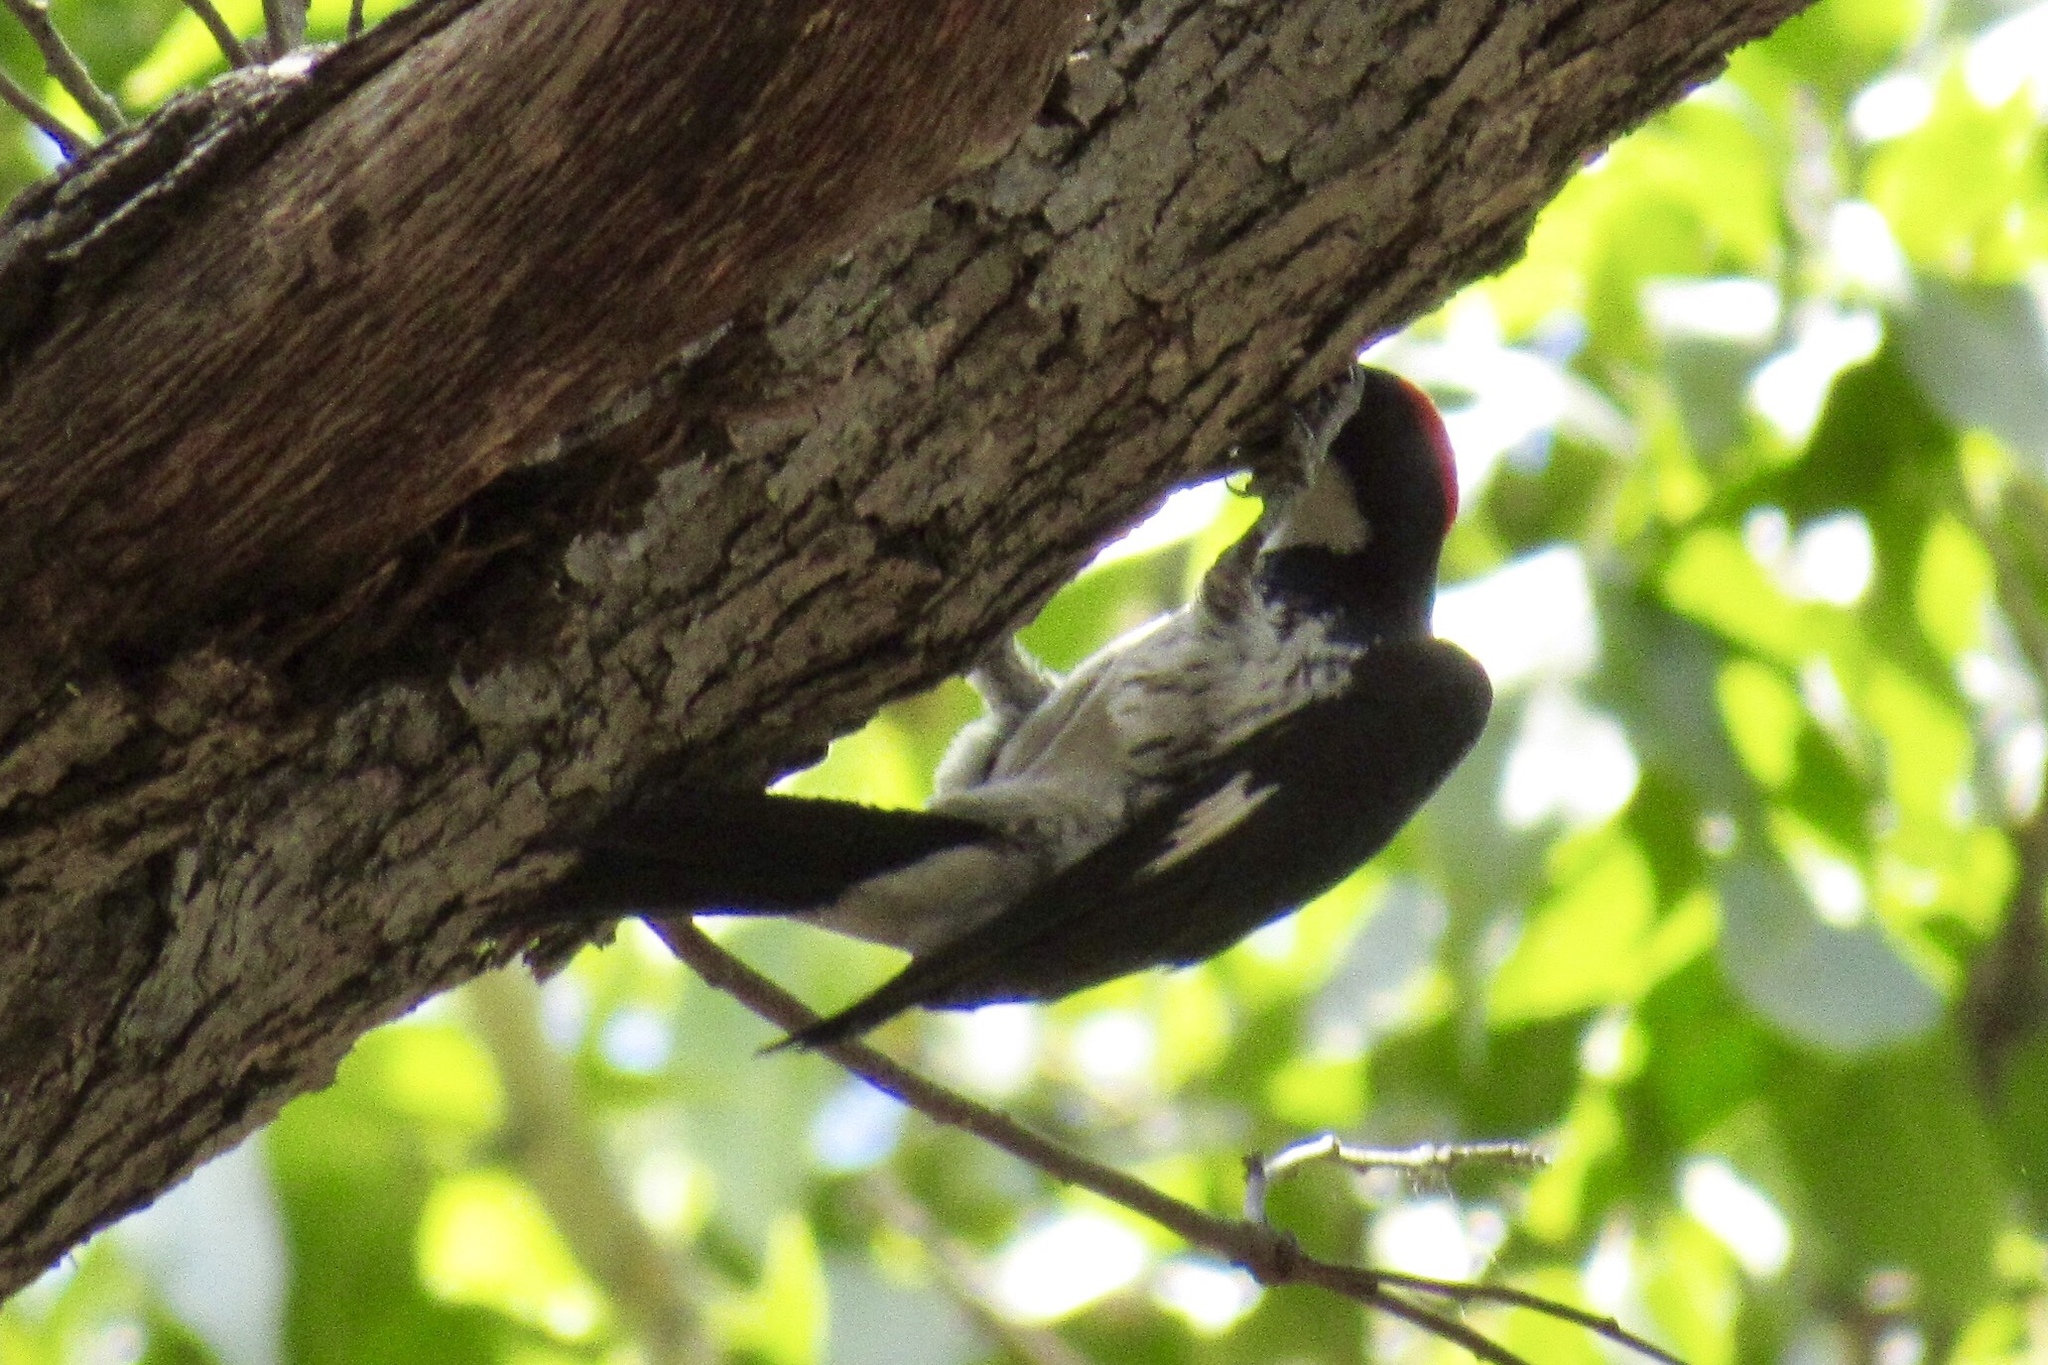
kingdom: Animalia
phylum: Chordata
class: Aves
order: Piciformes
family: Picidae
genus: Melanerpes
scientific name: Melanerpes formicivorus
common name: Acorn woodpecker
